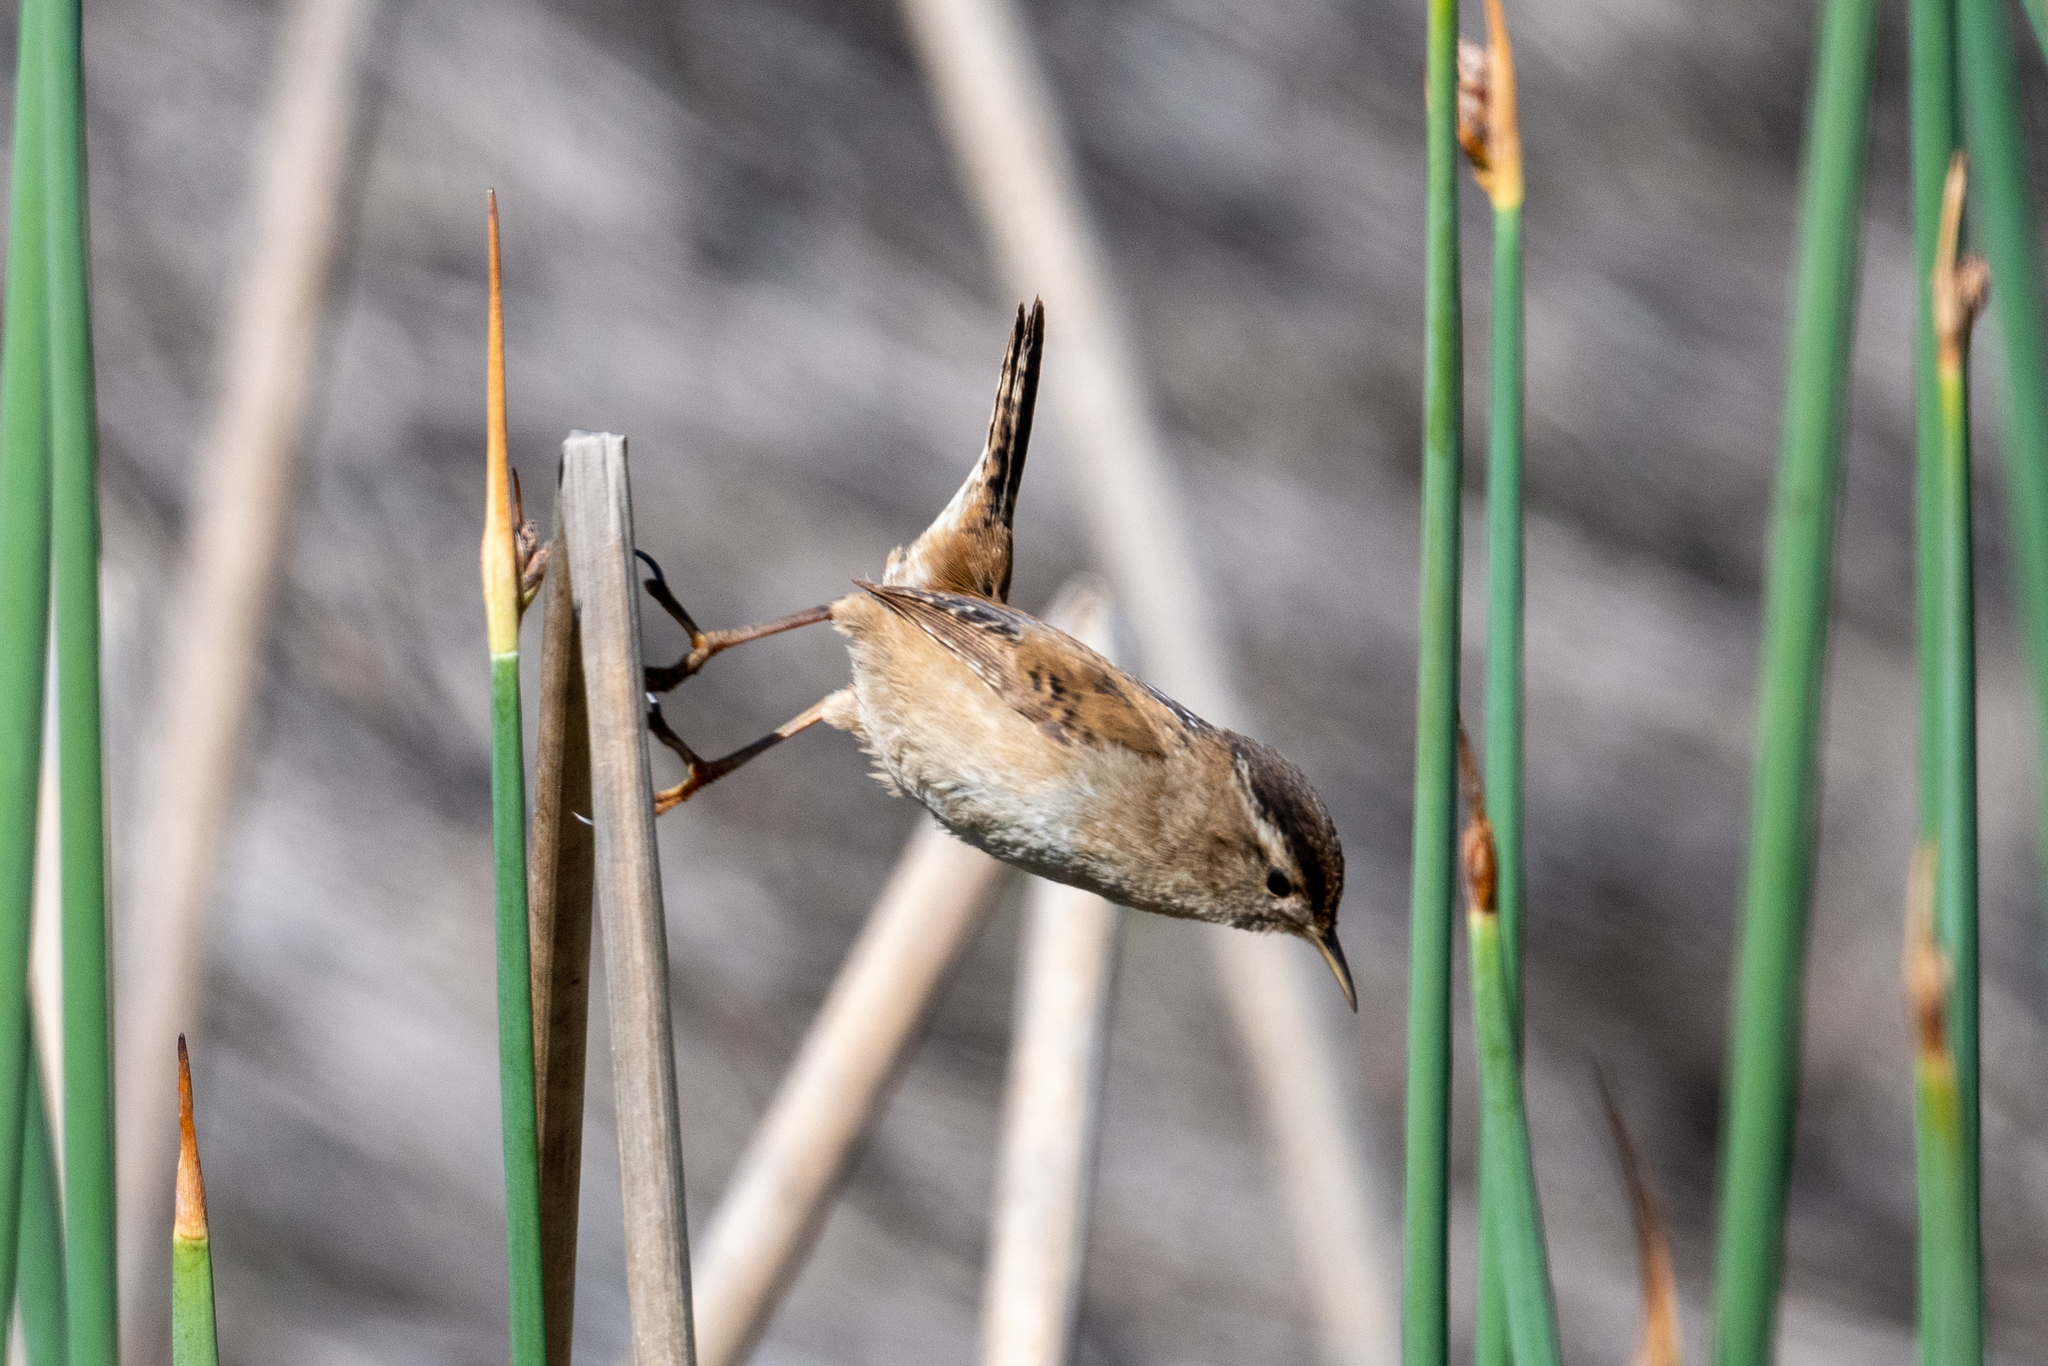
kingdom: Animalia
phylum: Chordata
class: Aves
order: Passeriformes
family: Troglodytidae
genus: Cistothorus
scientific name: Cistothorus palustris
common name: Marsh wren
